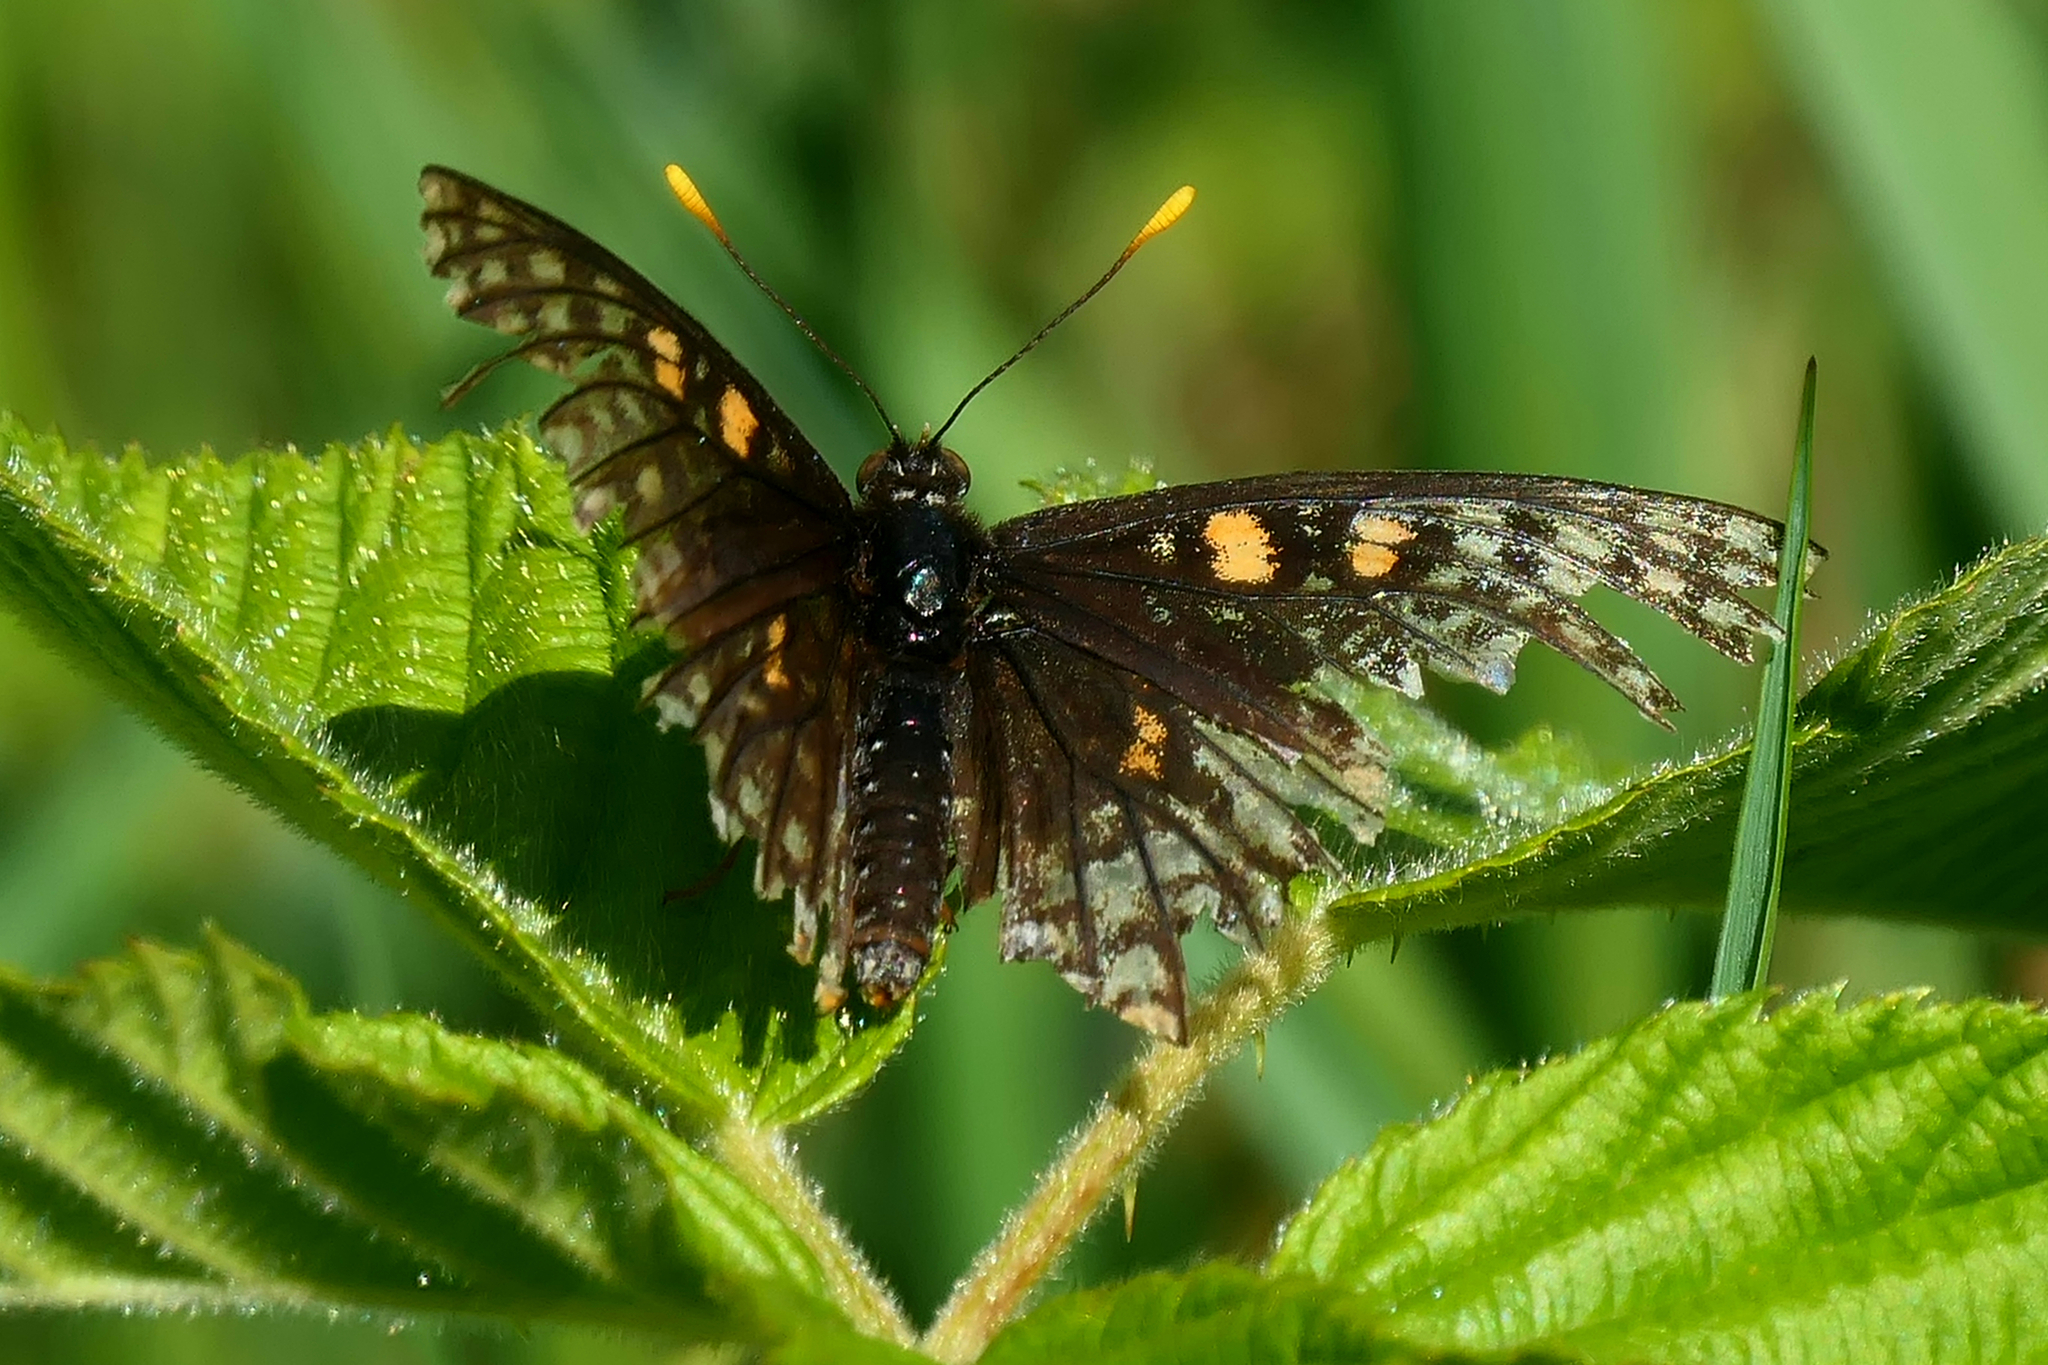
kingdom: Animalia
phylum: Arthropoda
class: Insecta
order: Lepidoptera
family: Nymphalidae
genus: Euphydryas
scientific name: Euphydryas phaeton
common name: Baltimore checkerspot
